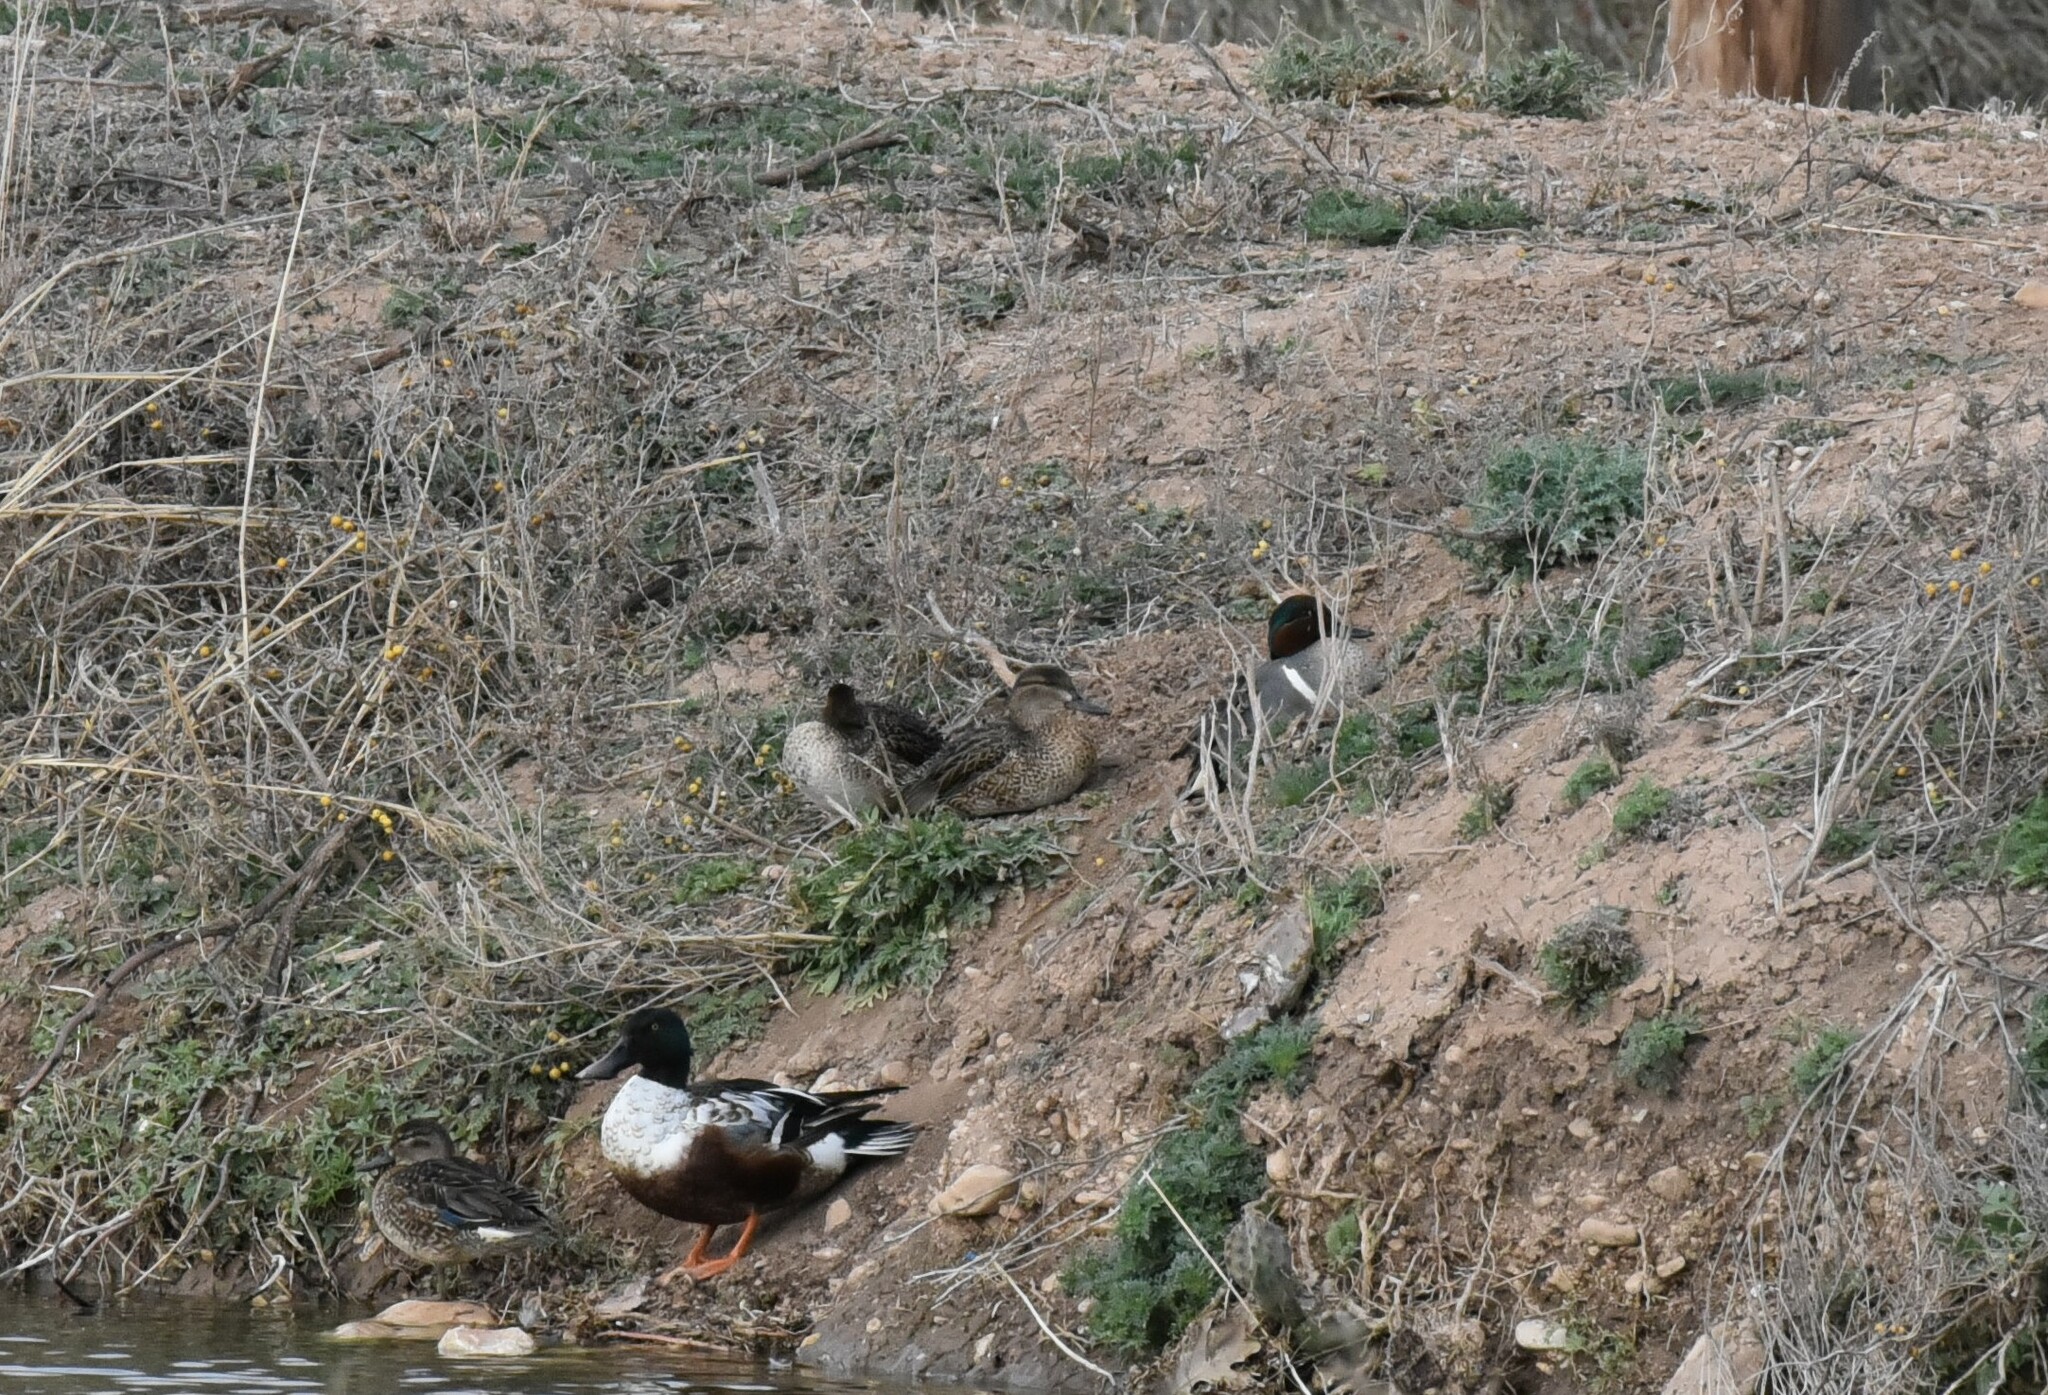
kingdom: Animalia
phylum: Chordata
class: Aves
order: Anseriformes
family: Anatidae
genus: Anas
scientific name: Anas crecca
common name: Eurasian teal
